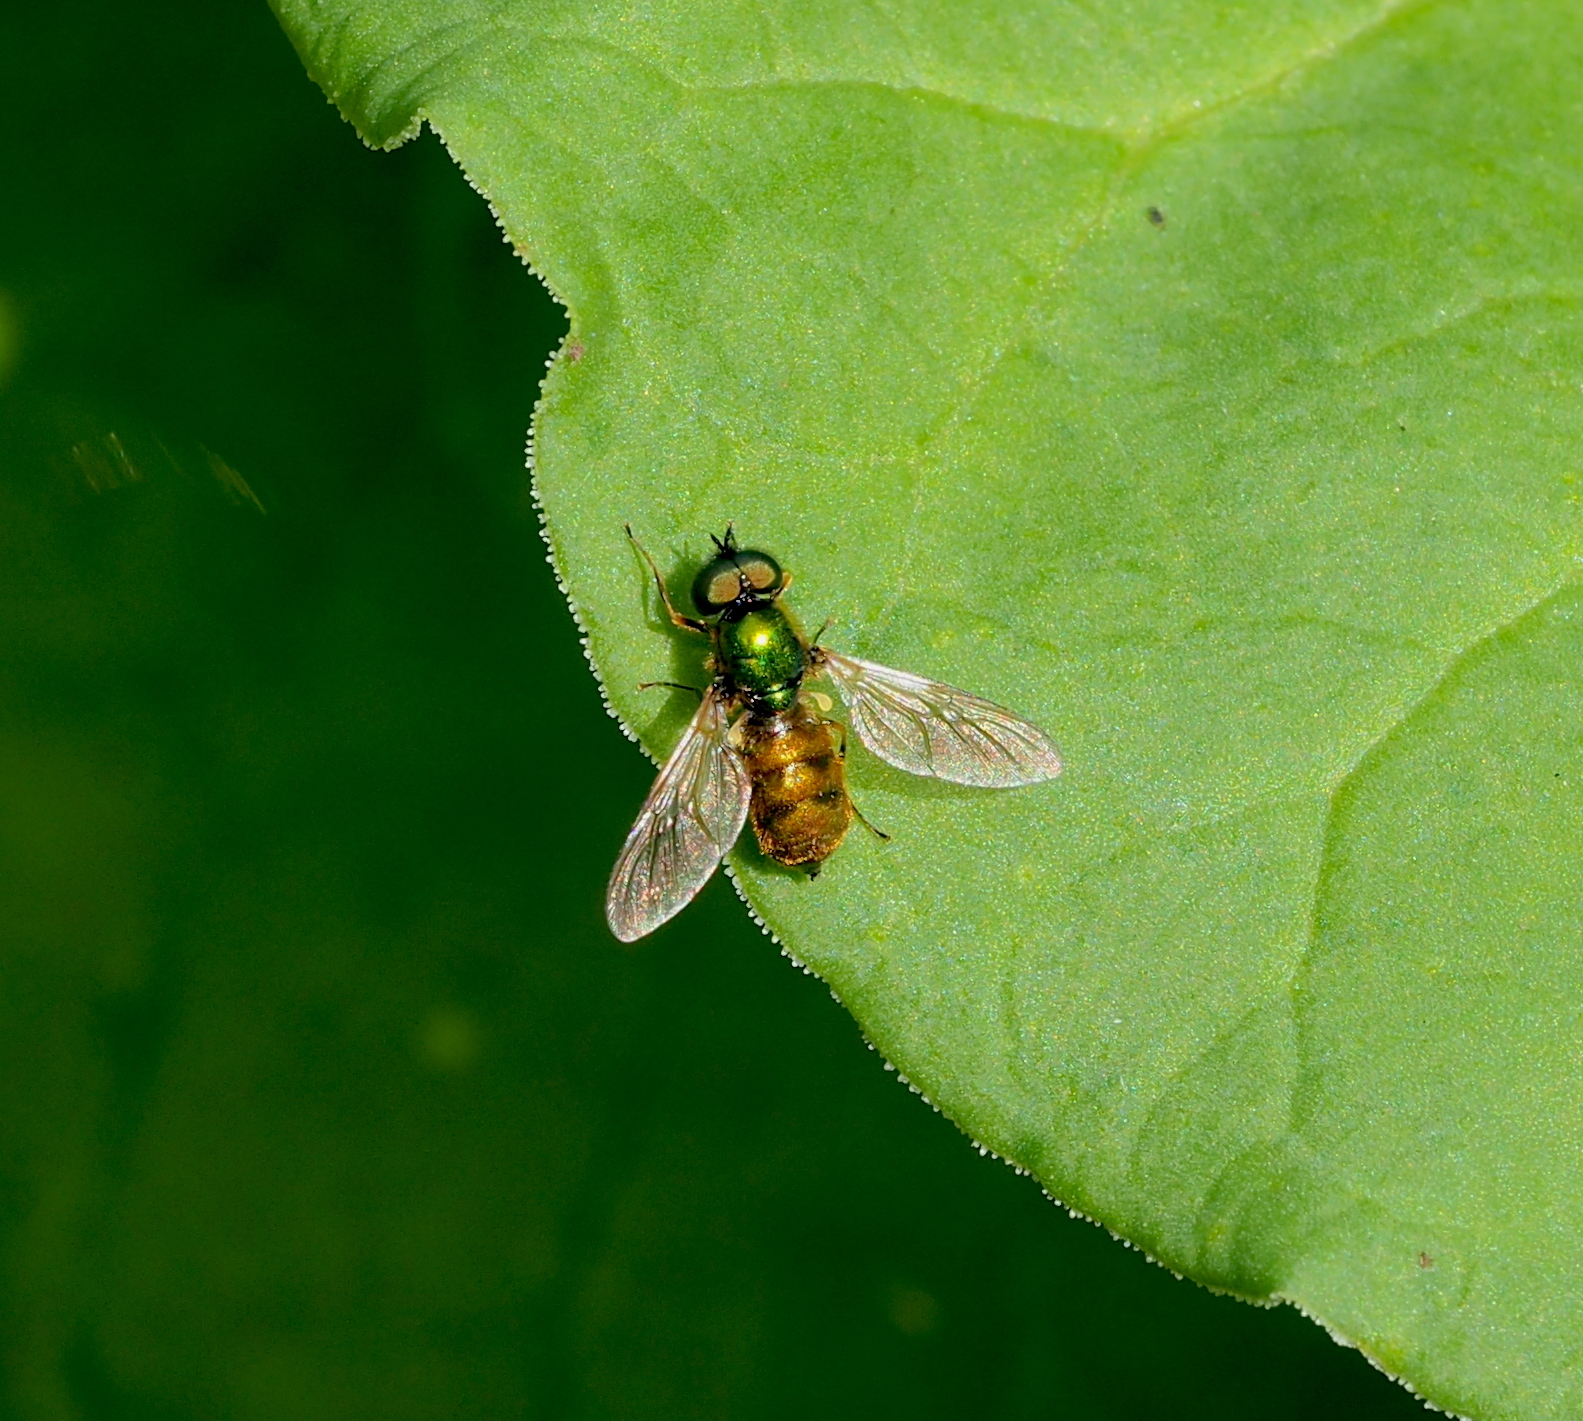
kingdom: Animalia
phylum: Arthropoda
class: Insecta
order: Diptera
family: Stratiomyidae
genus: Chloromyia
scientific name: Chloromyia formosa
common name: Soldier fly
